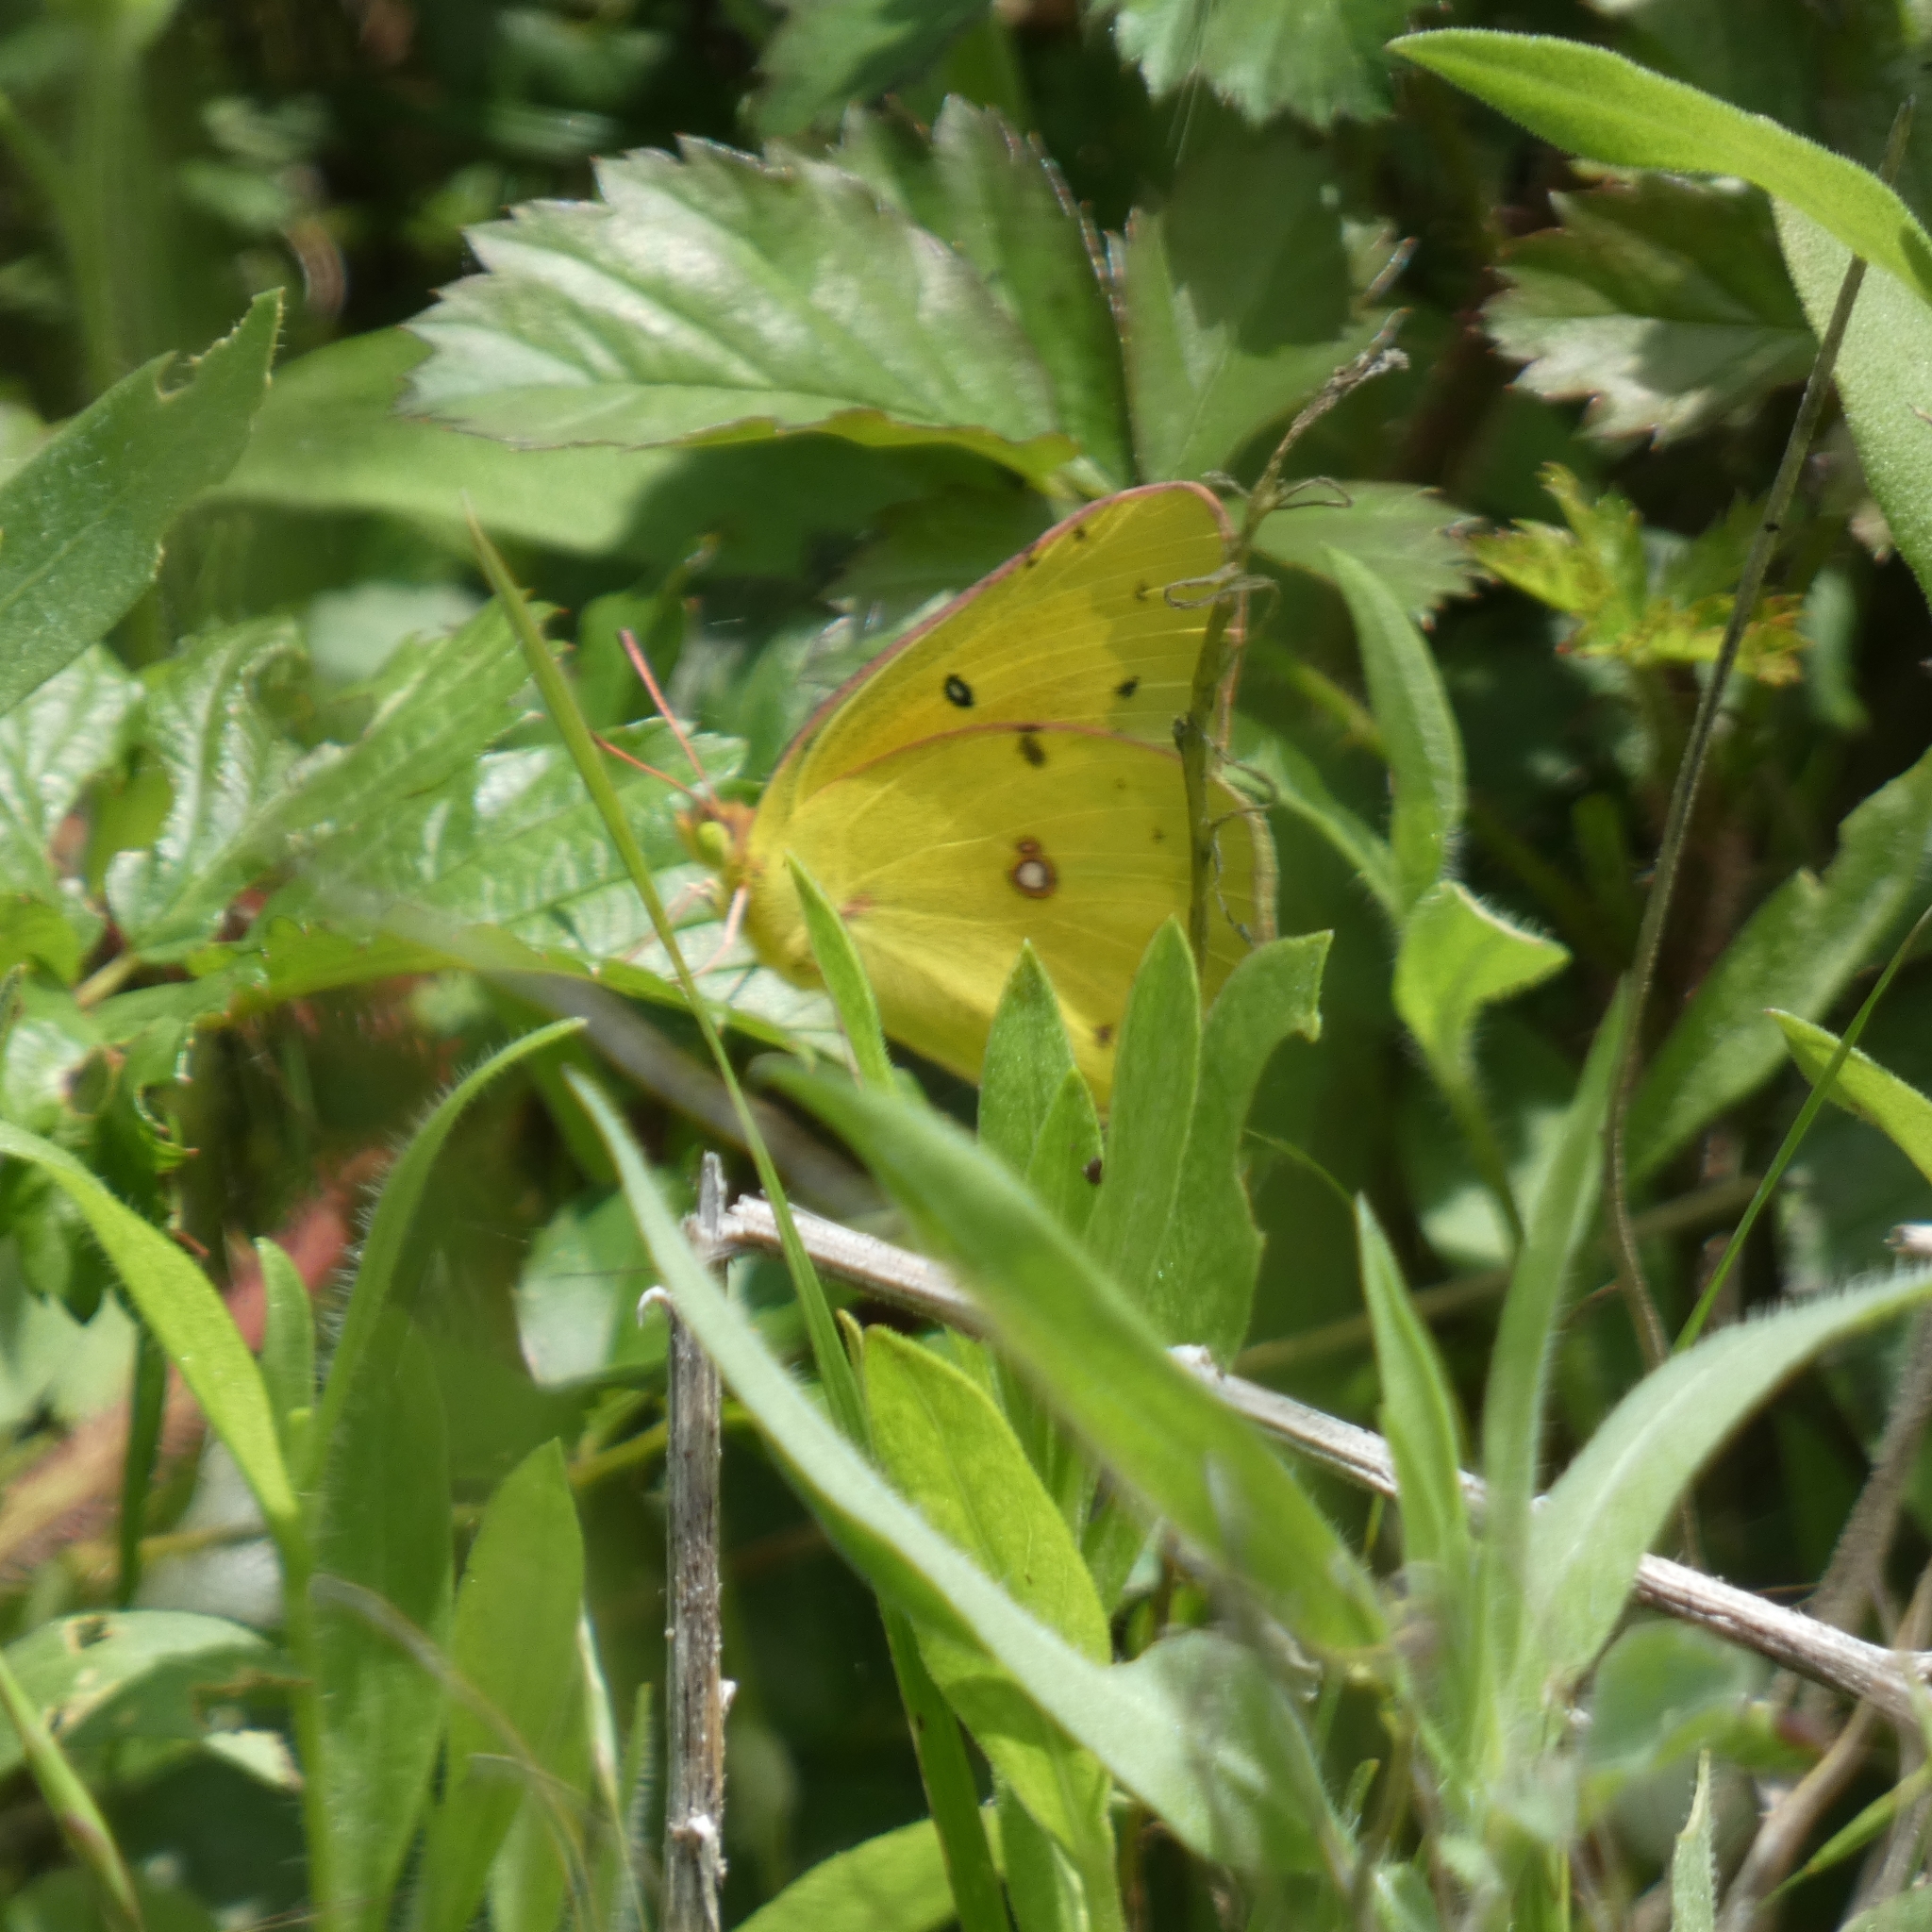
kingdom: Animalia
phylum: Arthropoda
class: Insecta
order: Lepidoptera
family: Pieridae
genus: Colias
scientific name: Colias eurytheme
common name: Alfalfa butterfly
